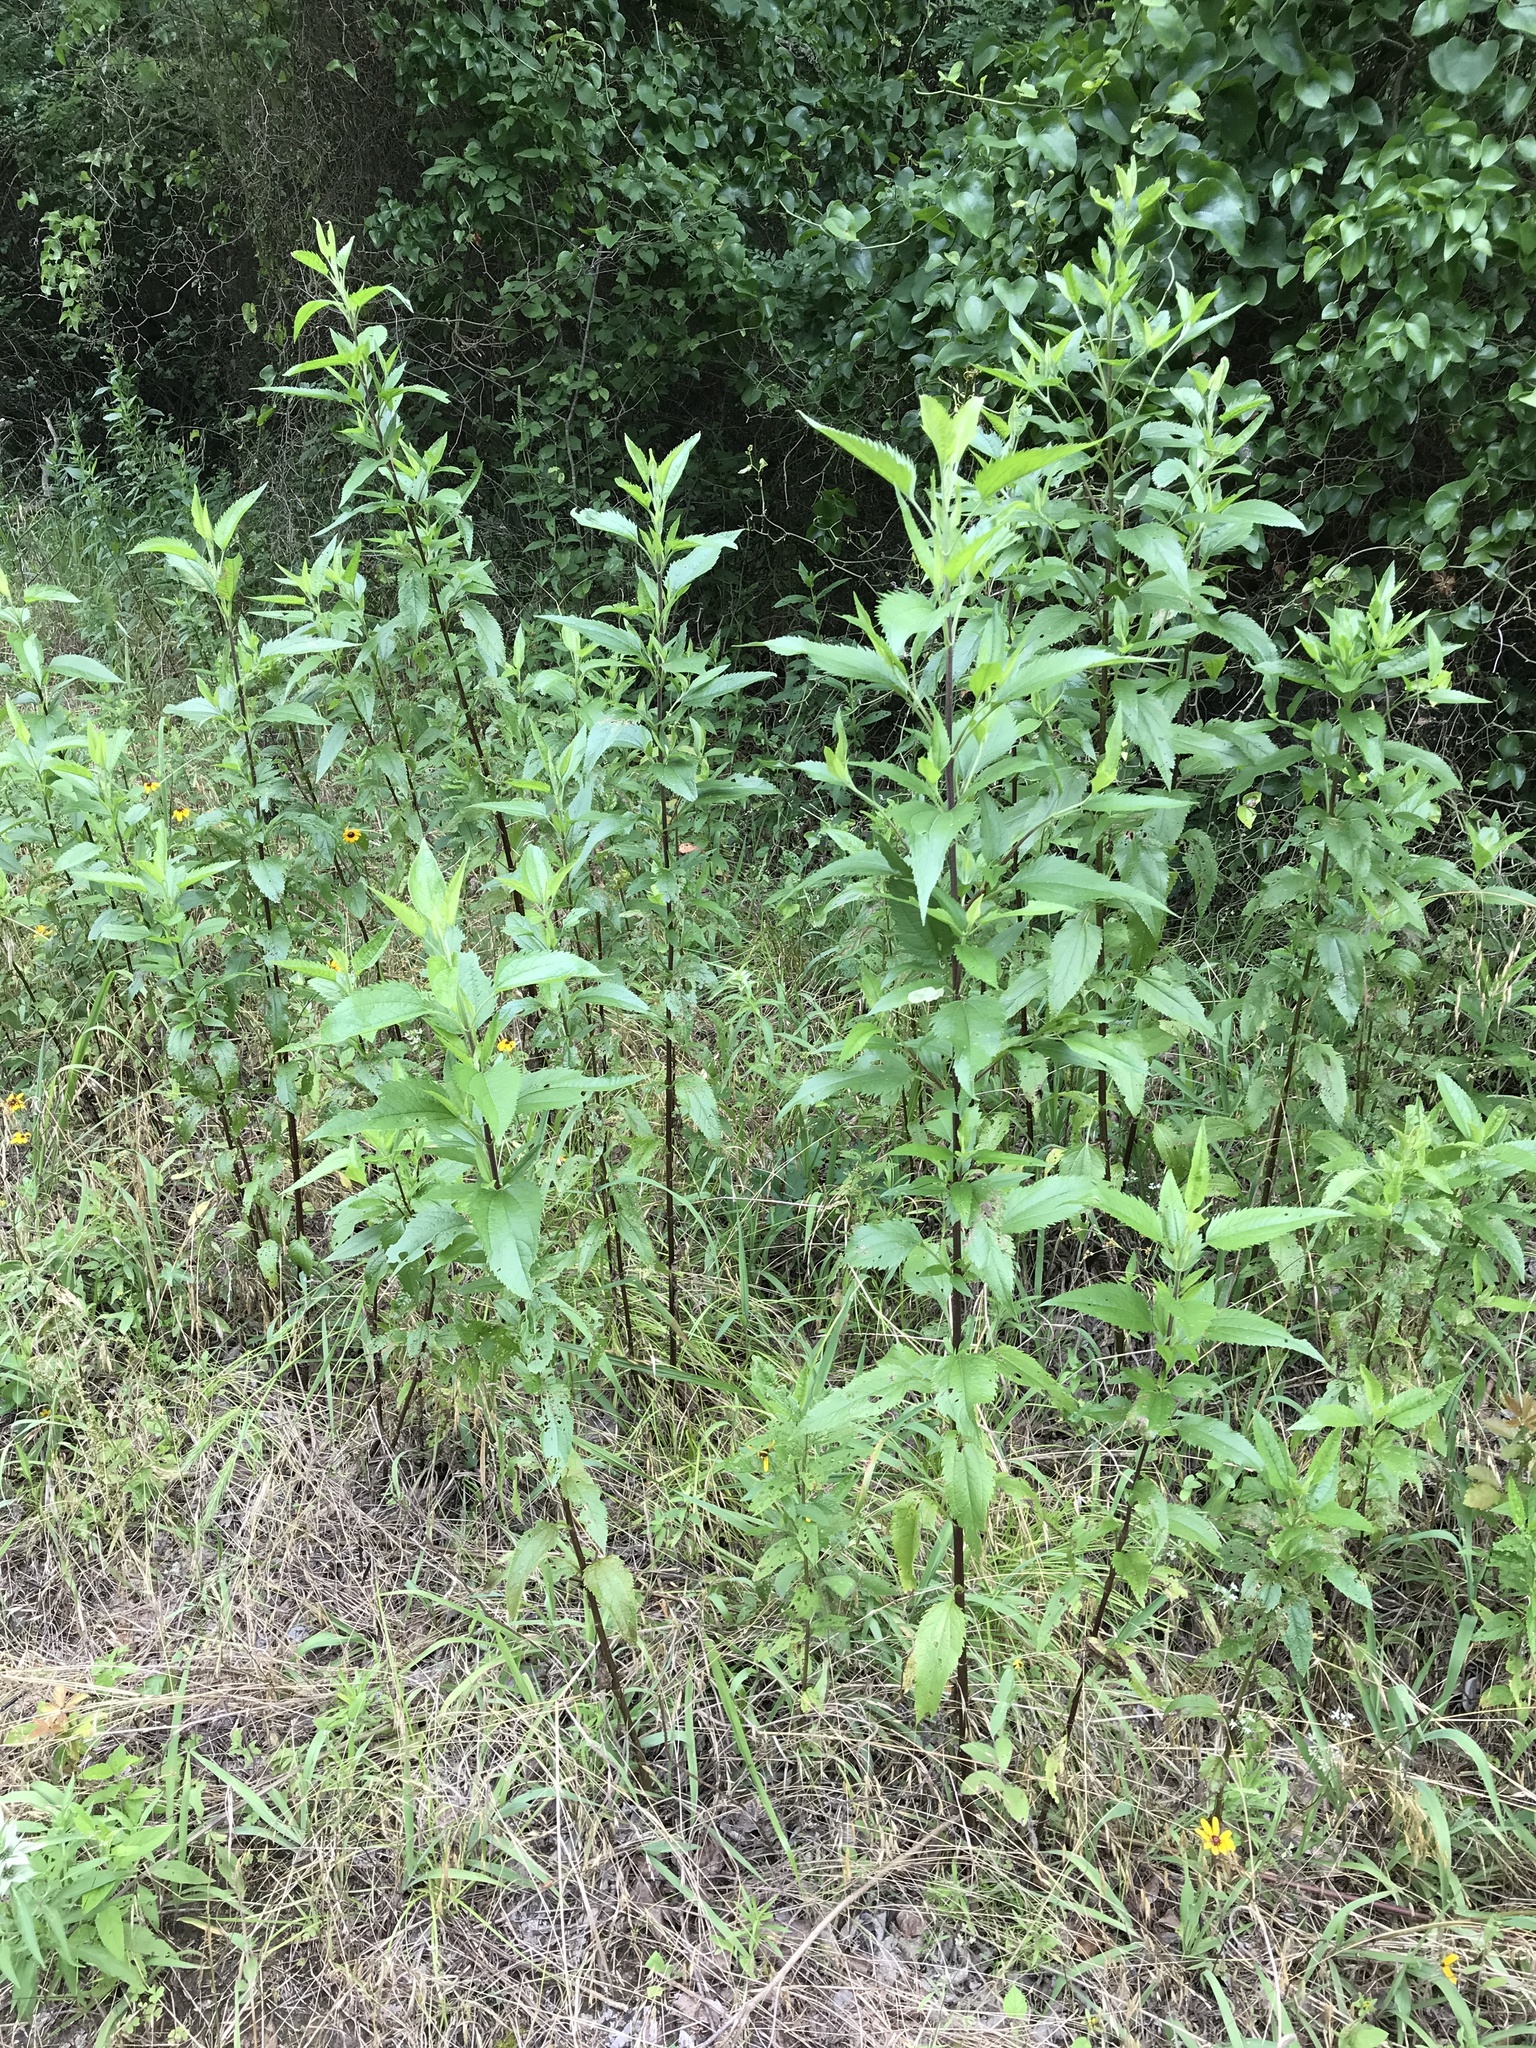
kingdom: Plantae
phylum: Tracheophyta
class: Magnoliopsida
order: Asterales
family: Asteraceae
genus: Eupatorium
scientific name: Eupatorium serotinum
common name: Late boneset
